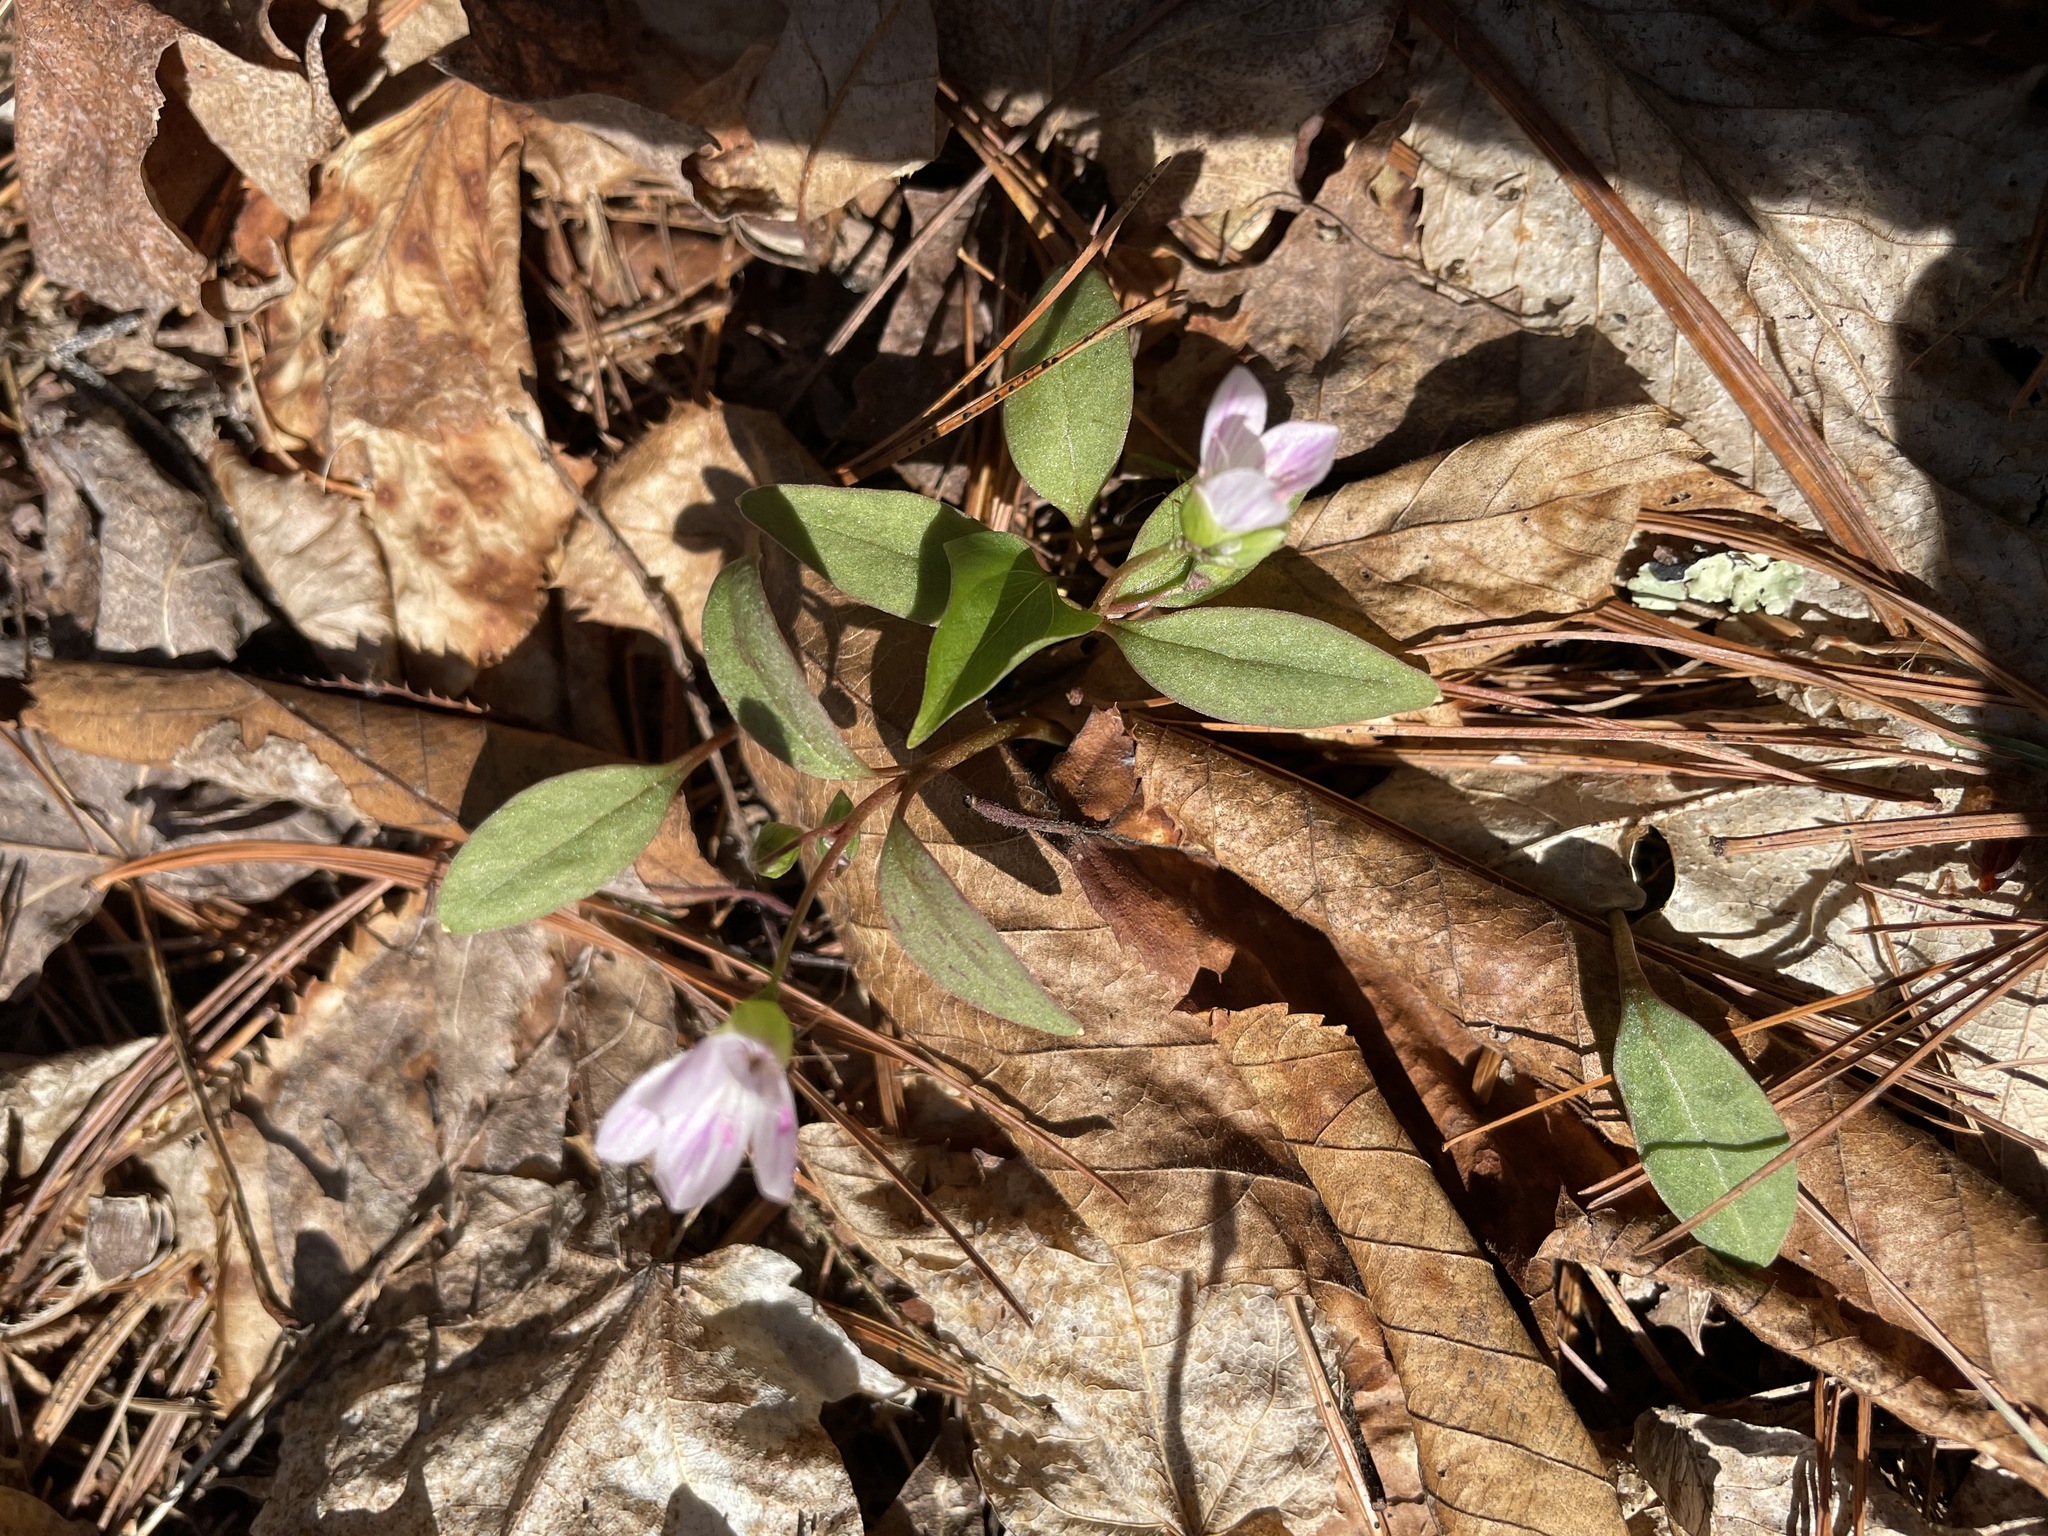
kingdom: Plantae
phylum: Tracheophyta
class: Magnoliopsida
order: Caryophyllales
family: Montiaceae
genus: Claytonia
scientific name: Claytonia caroliniana
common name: Carolina spring beauty
